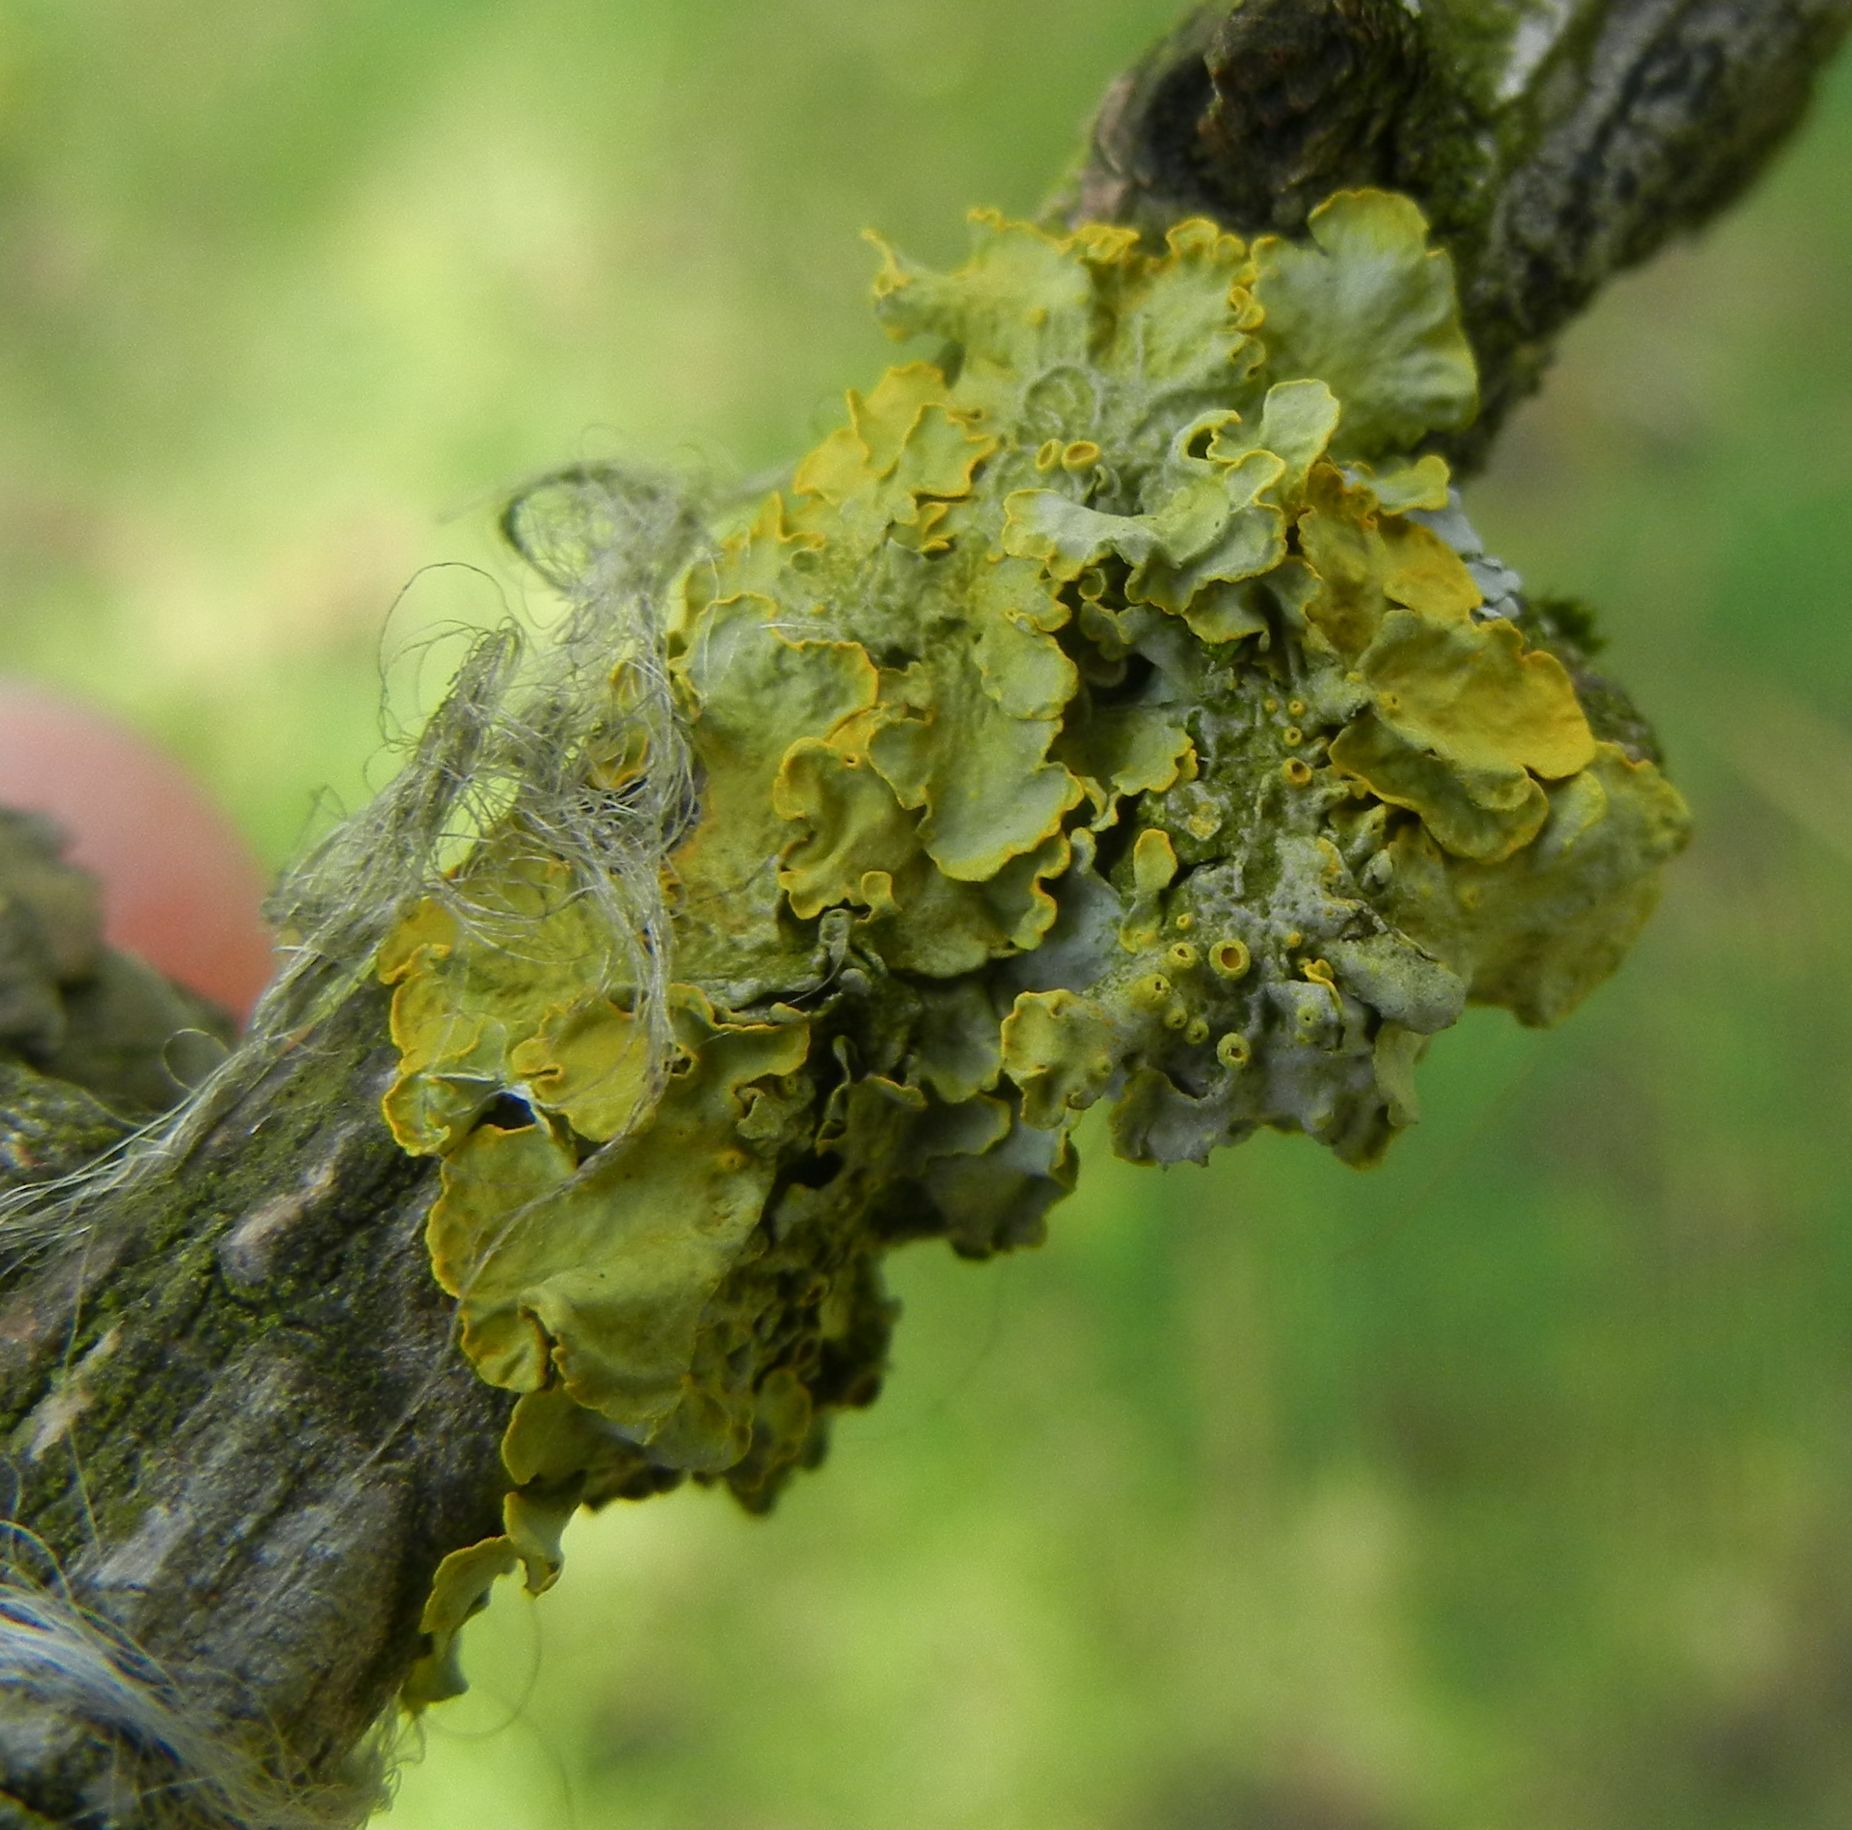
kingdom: Fungi
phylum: Ascomycota
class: Lecanoromycetes
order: Teloschistales
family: Teloschistaceae
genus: Xanthoria
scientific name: Xanthoria parietina
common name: Common orange lichen
